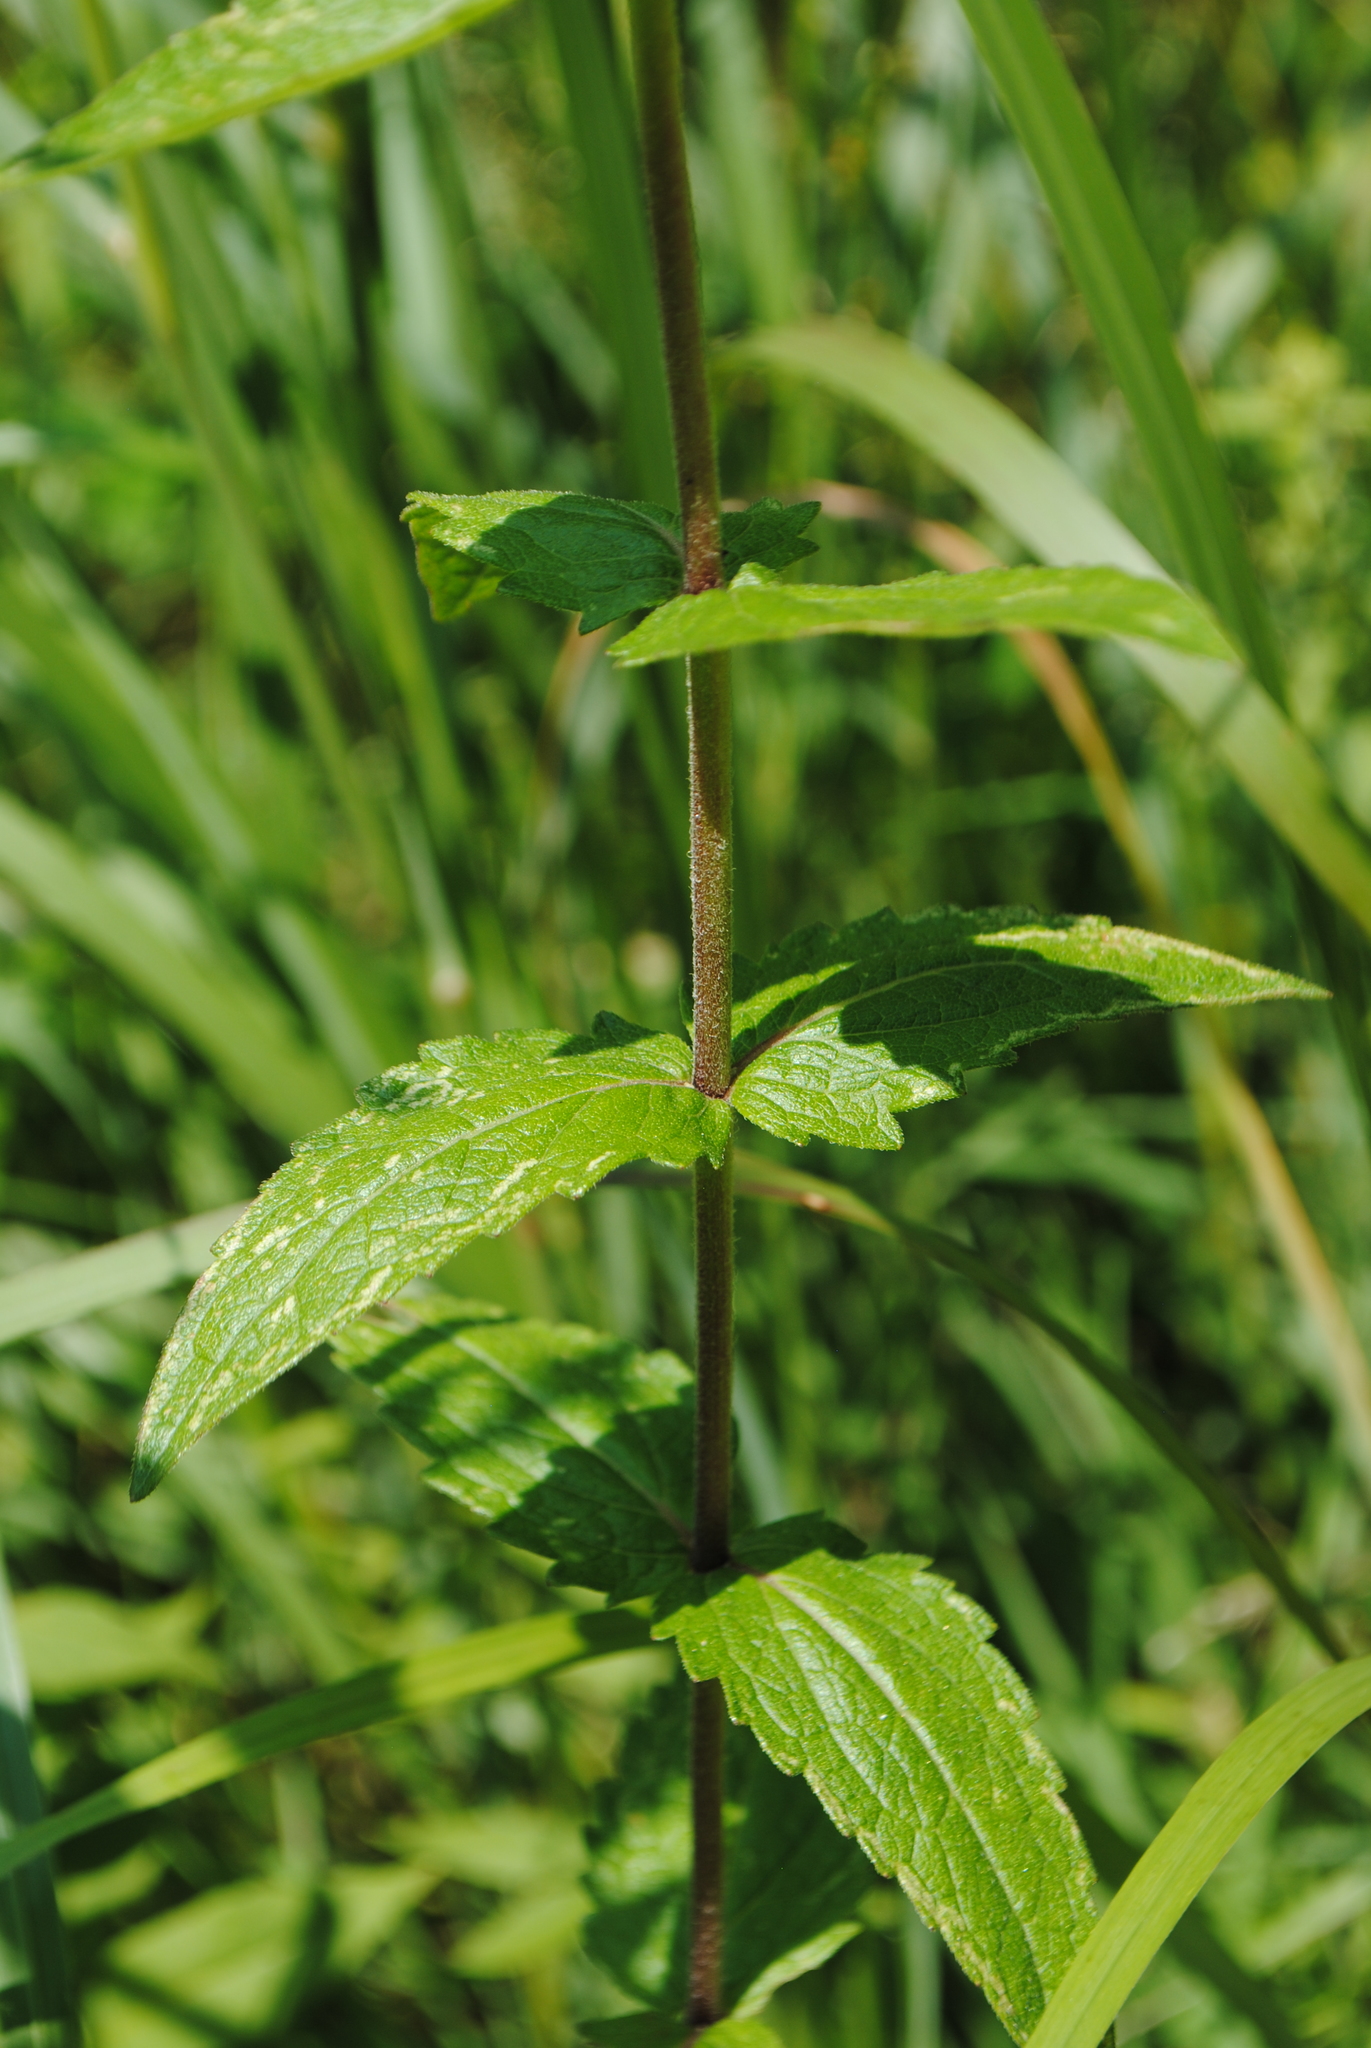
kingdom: Plantae
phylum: Tracheophyta
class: Magnoliopsida
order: Asterales
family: Asteraceae
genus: Eupatorium
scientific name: Eupatorium pilosum
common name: Rough boneset
